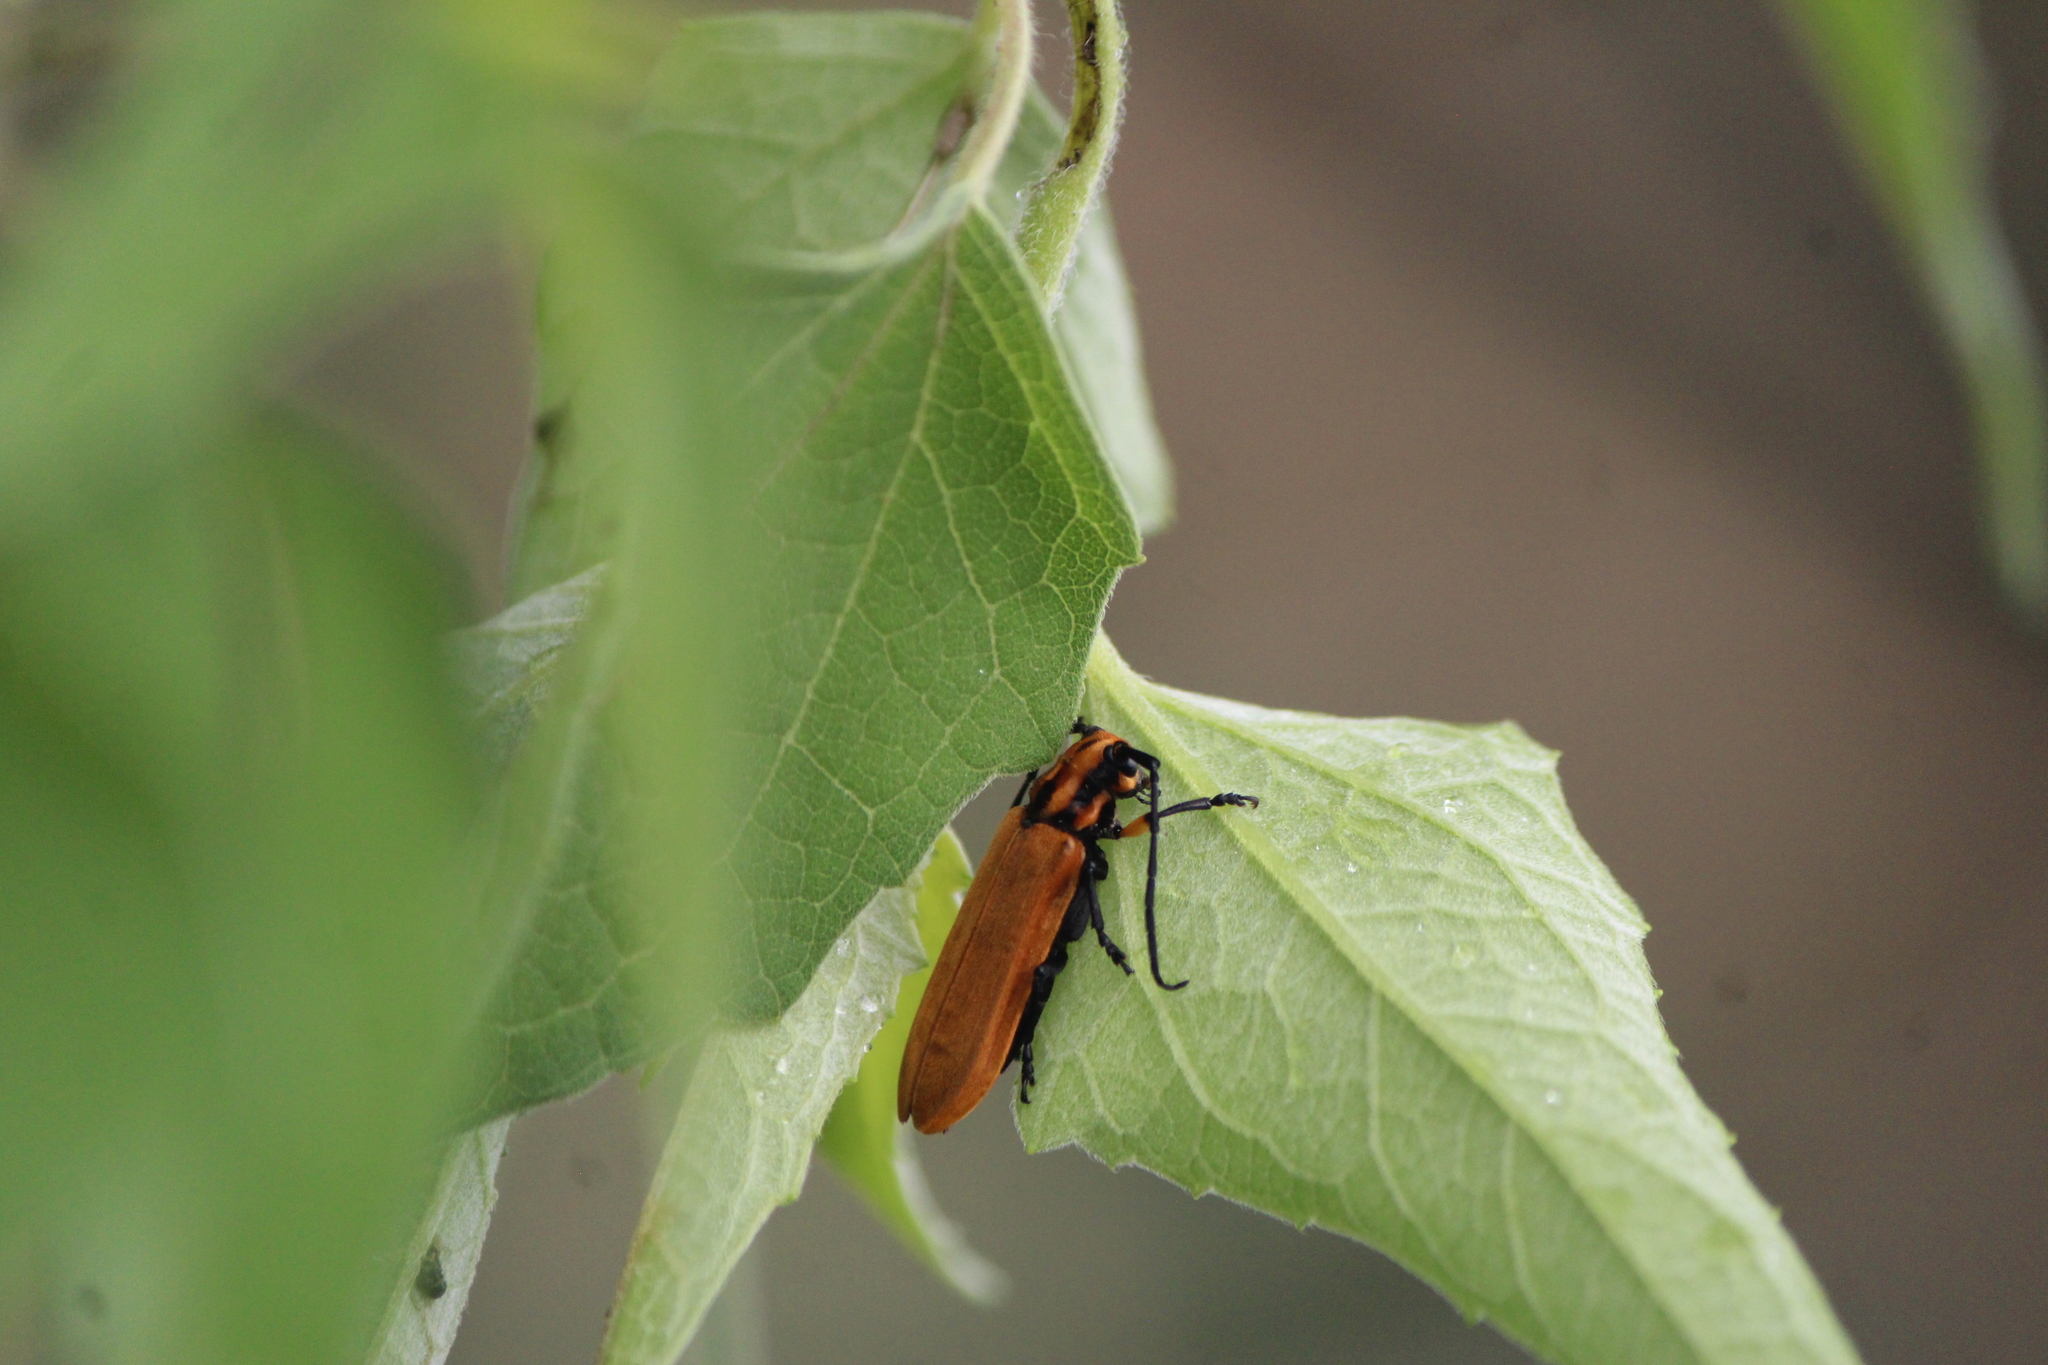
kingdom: Animalia
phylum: Arthropoda
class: Insecta
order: Coleoptera
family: Cerambycidae
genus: Mecas
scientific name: Mecas sericeus
